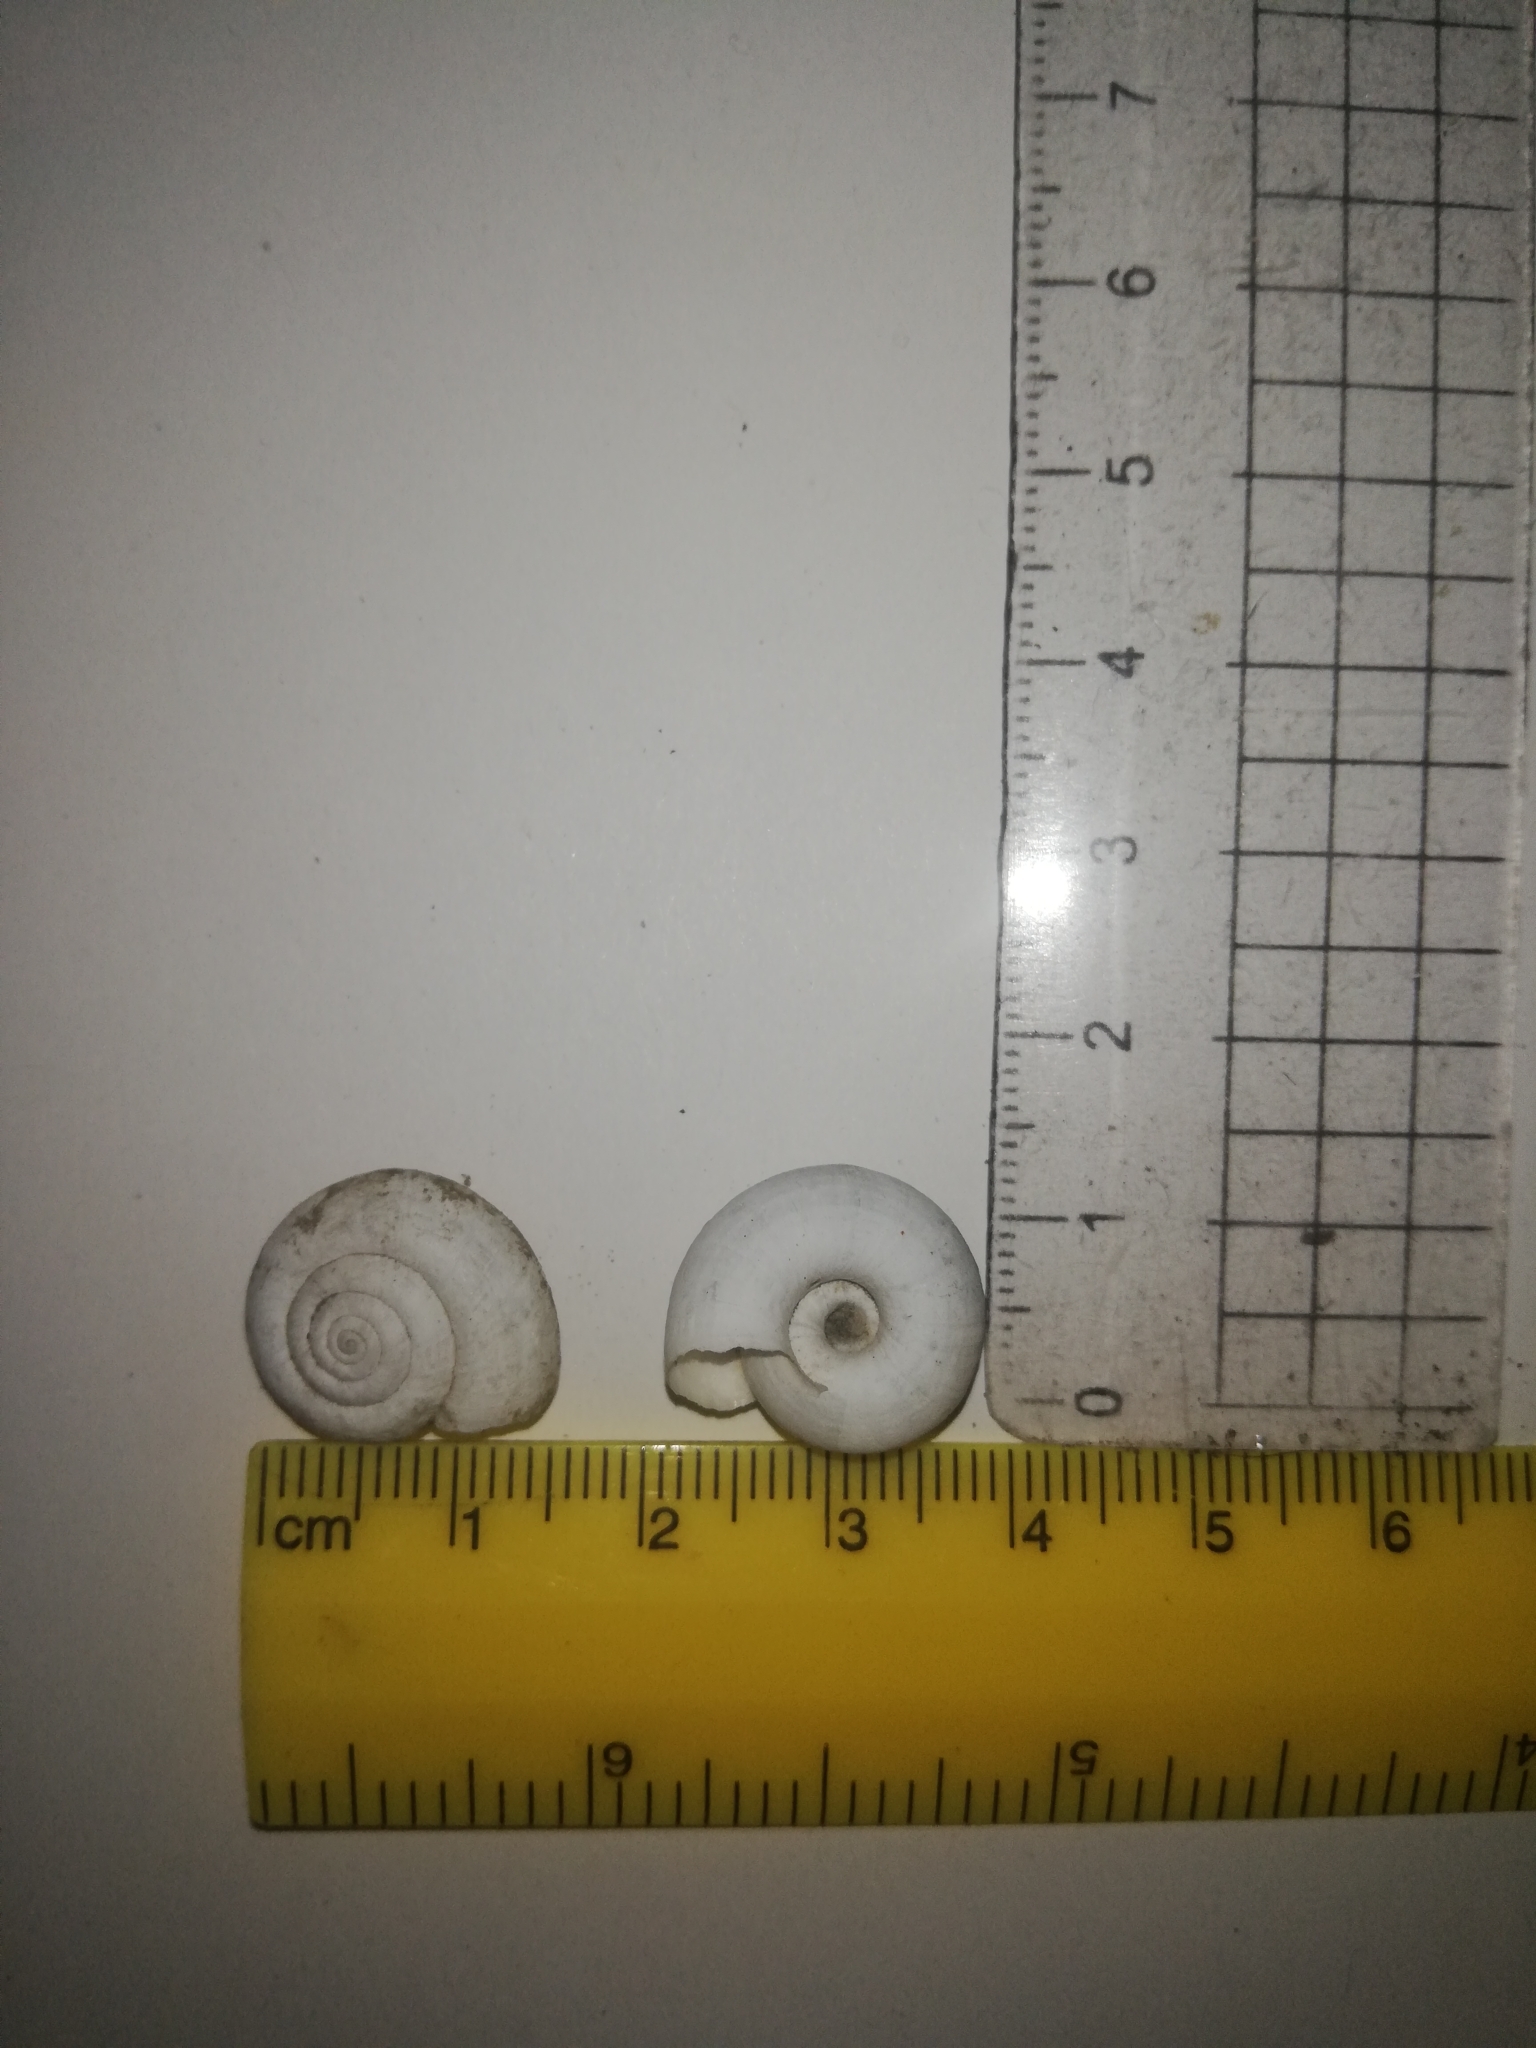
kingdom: Animalia
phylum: Mollusca
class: Gastropoda
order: Stylommatophora
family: Geomitridae
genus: Helicella
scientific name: Helicella itala
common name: Heath snail
